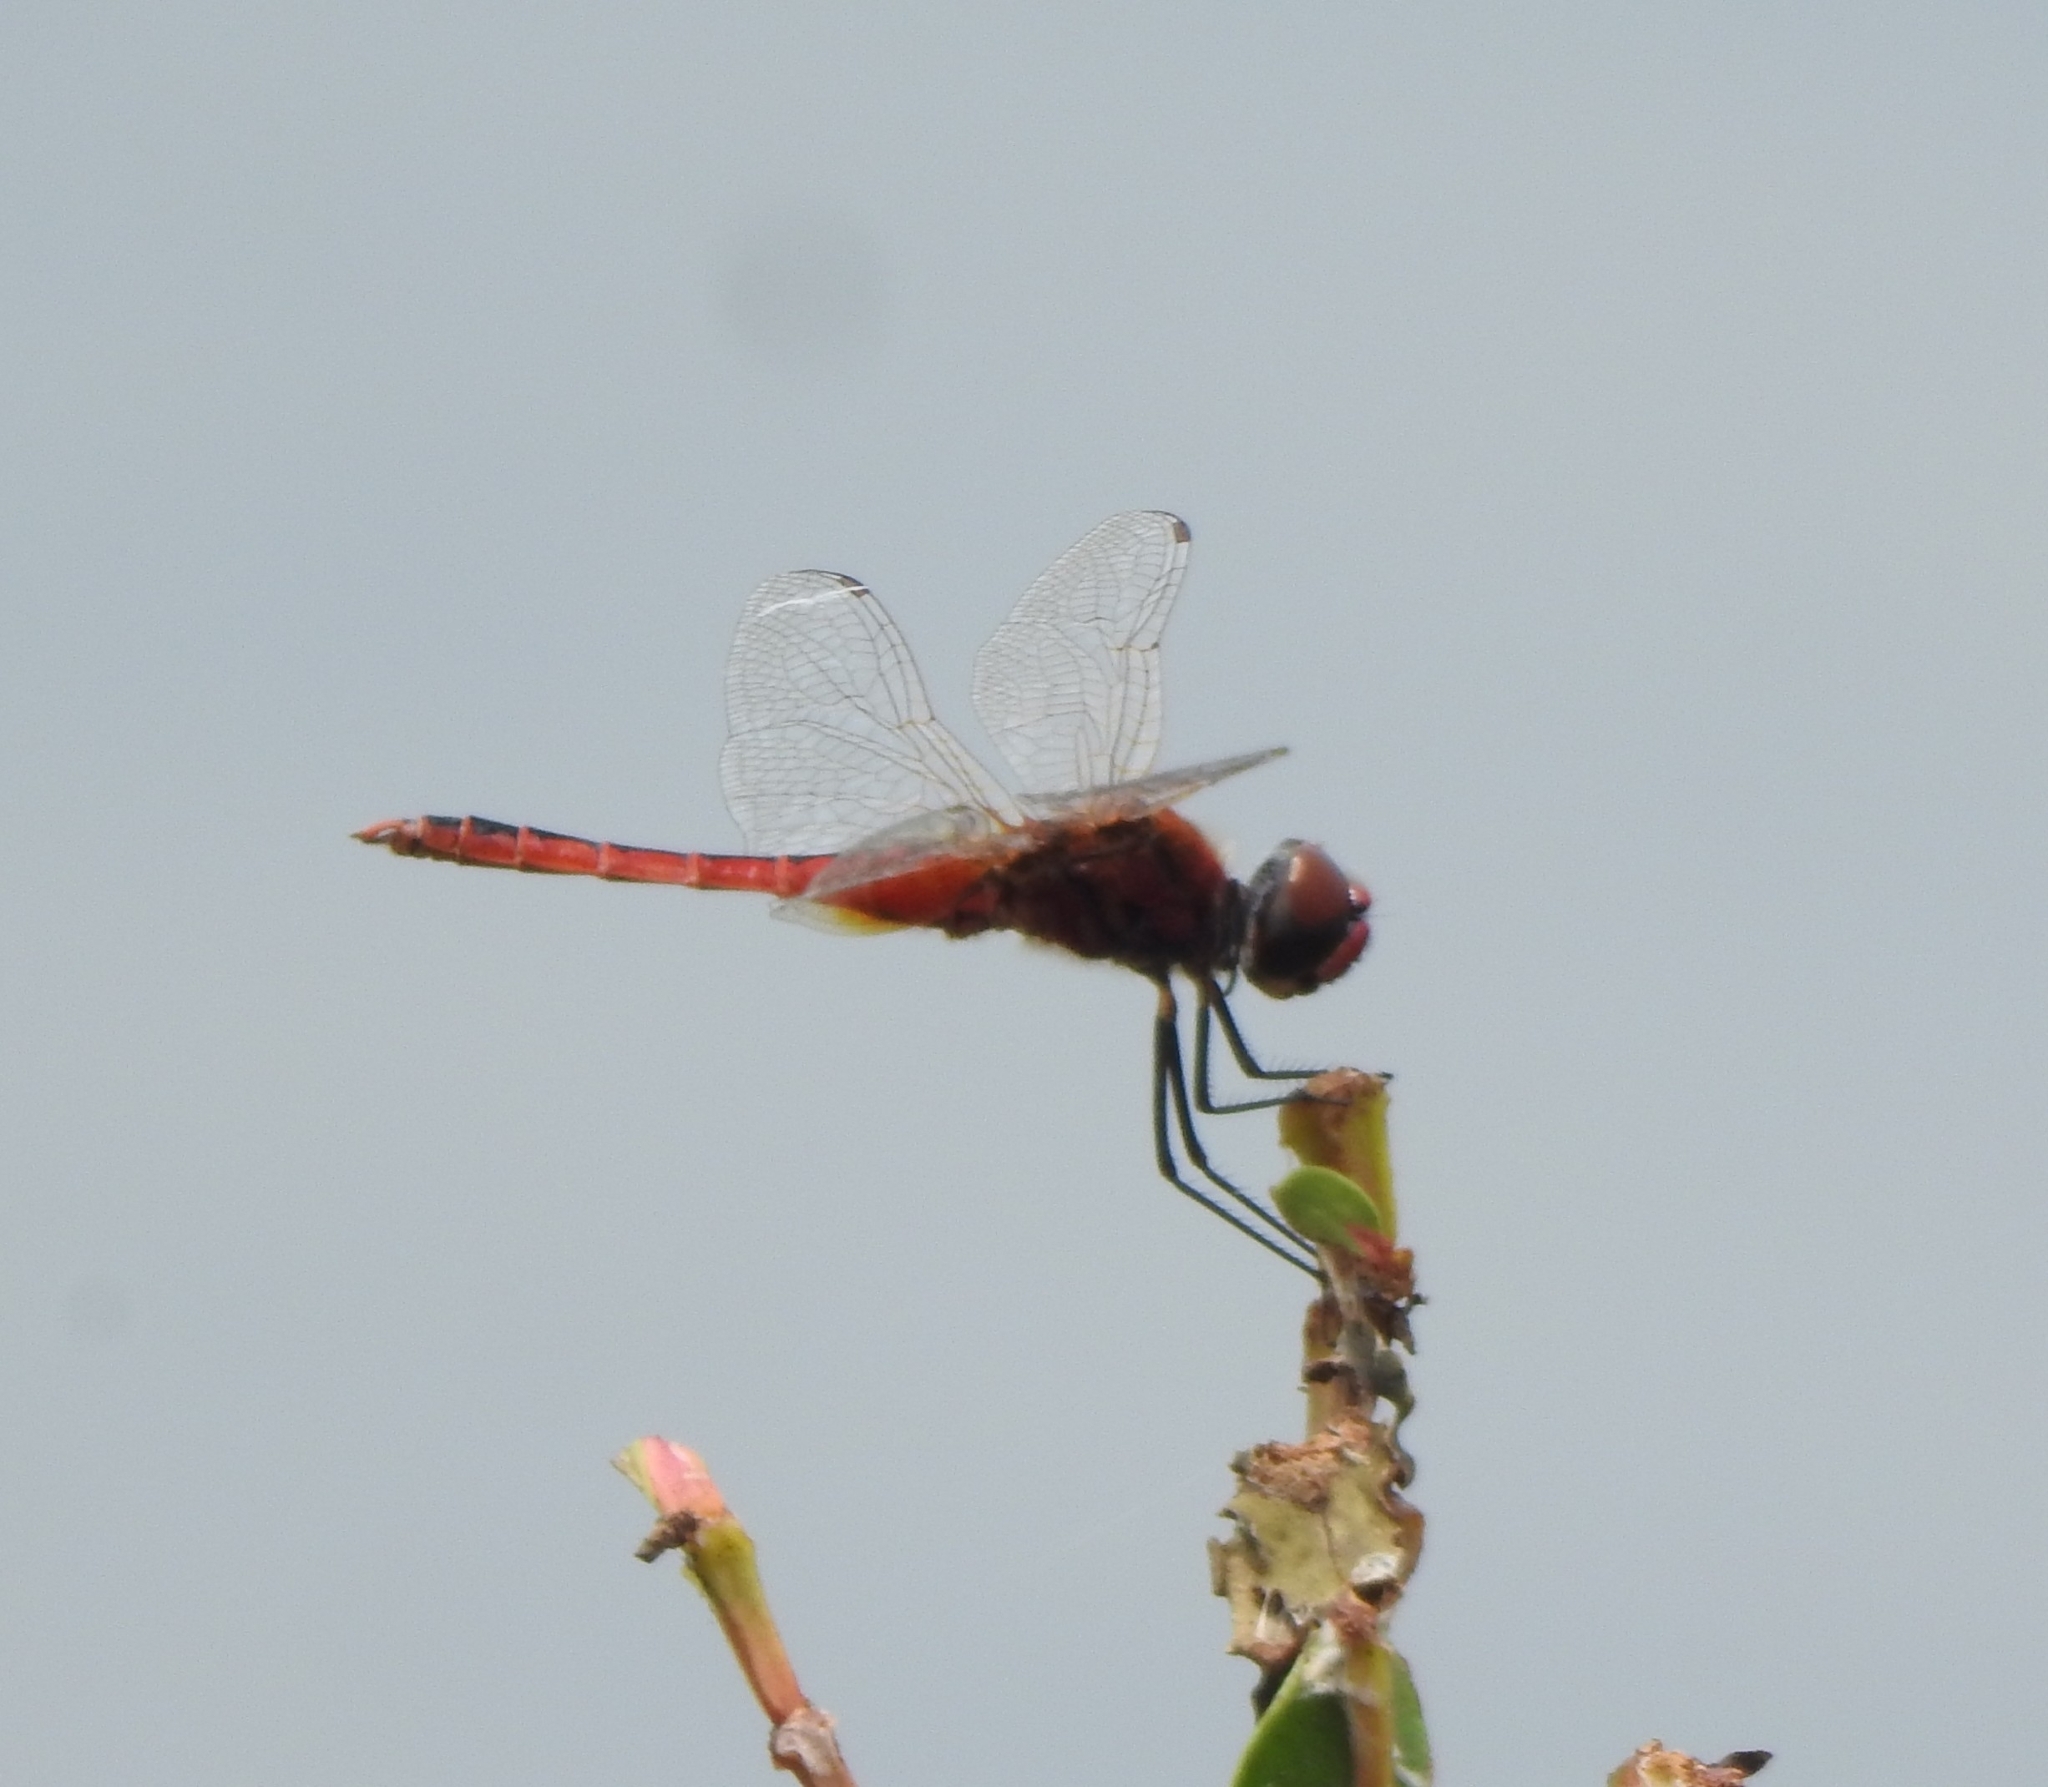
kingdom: Animalia
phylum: Arthropoda
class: Insecta
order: Odonata
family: Libellulidae
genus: Macrodiplax
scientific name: Macrodiplax cora
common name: Coastal glider
